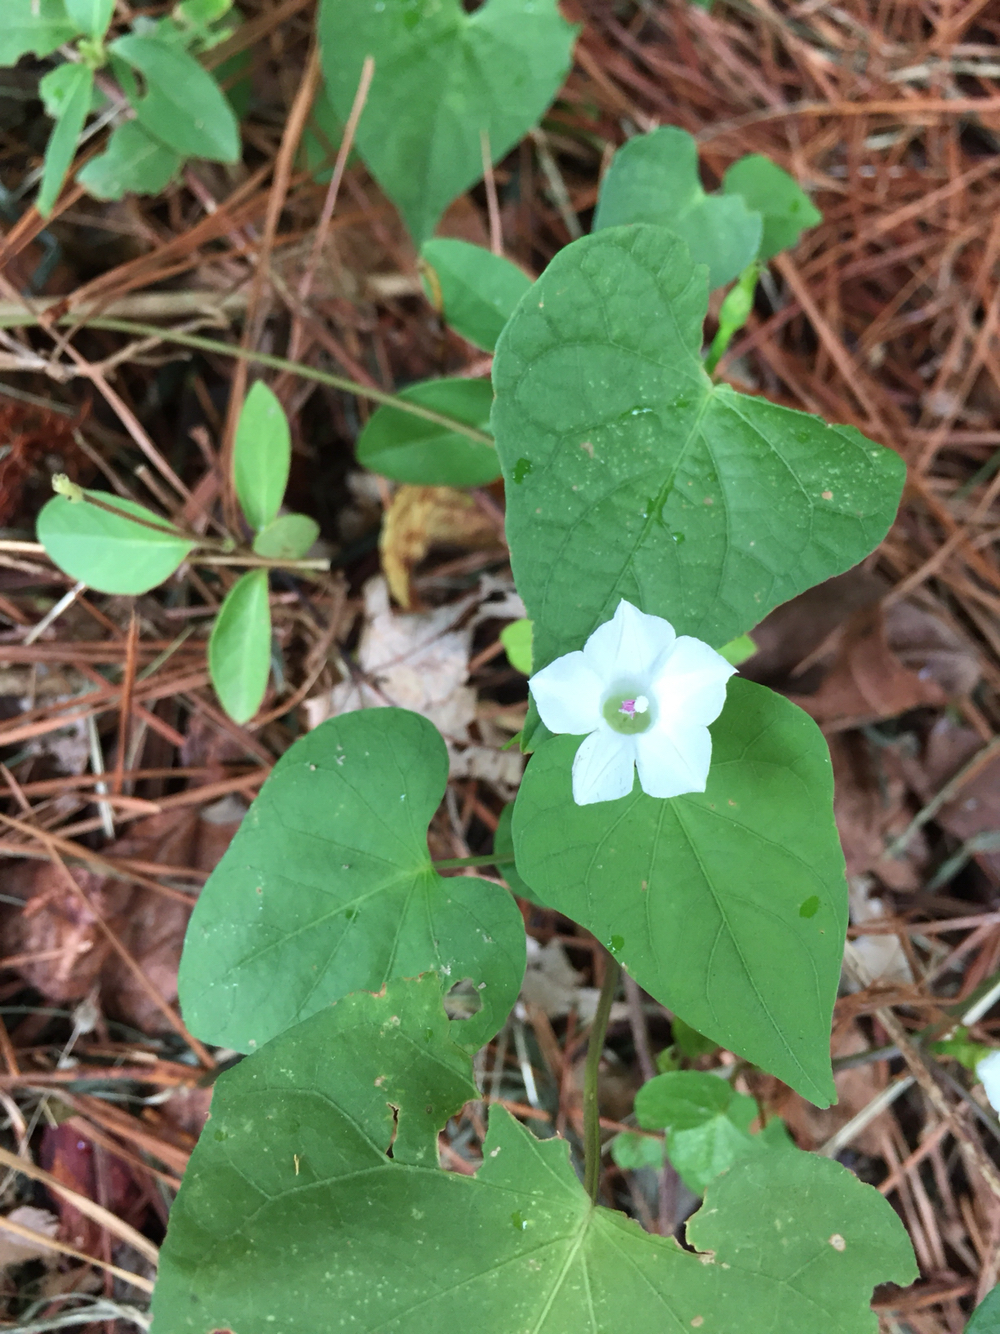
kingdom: Plantae
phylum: Tracheophyta
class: Magnoliopsida
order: Solanales
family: Convolvulaceae
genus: Ipomoea
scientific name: Ipomoea lacunosa
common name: White morning-glory
